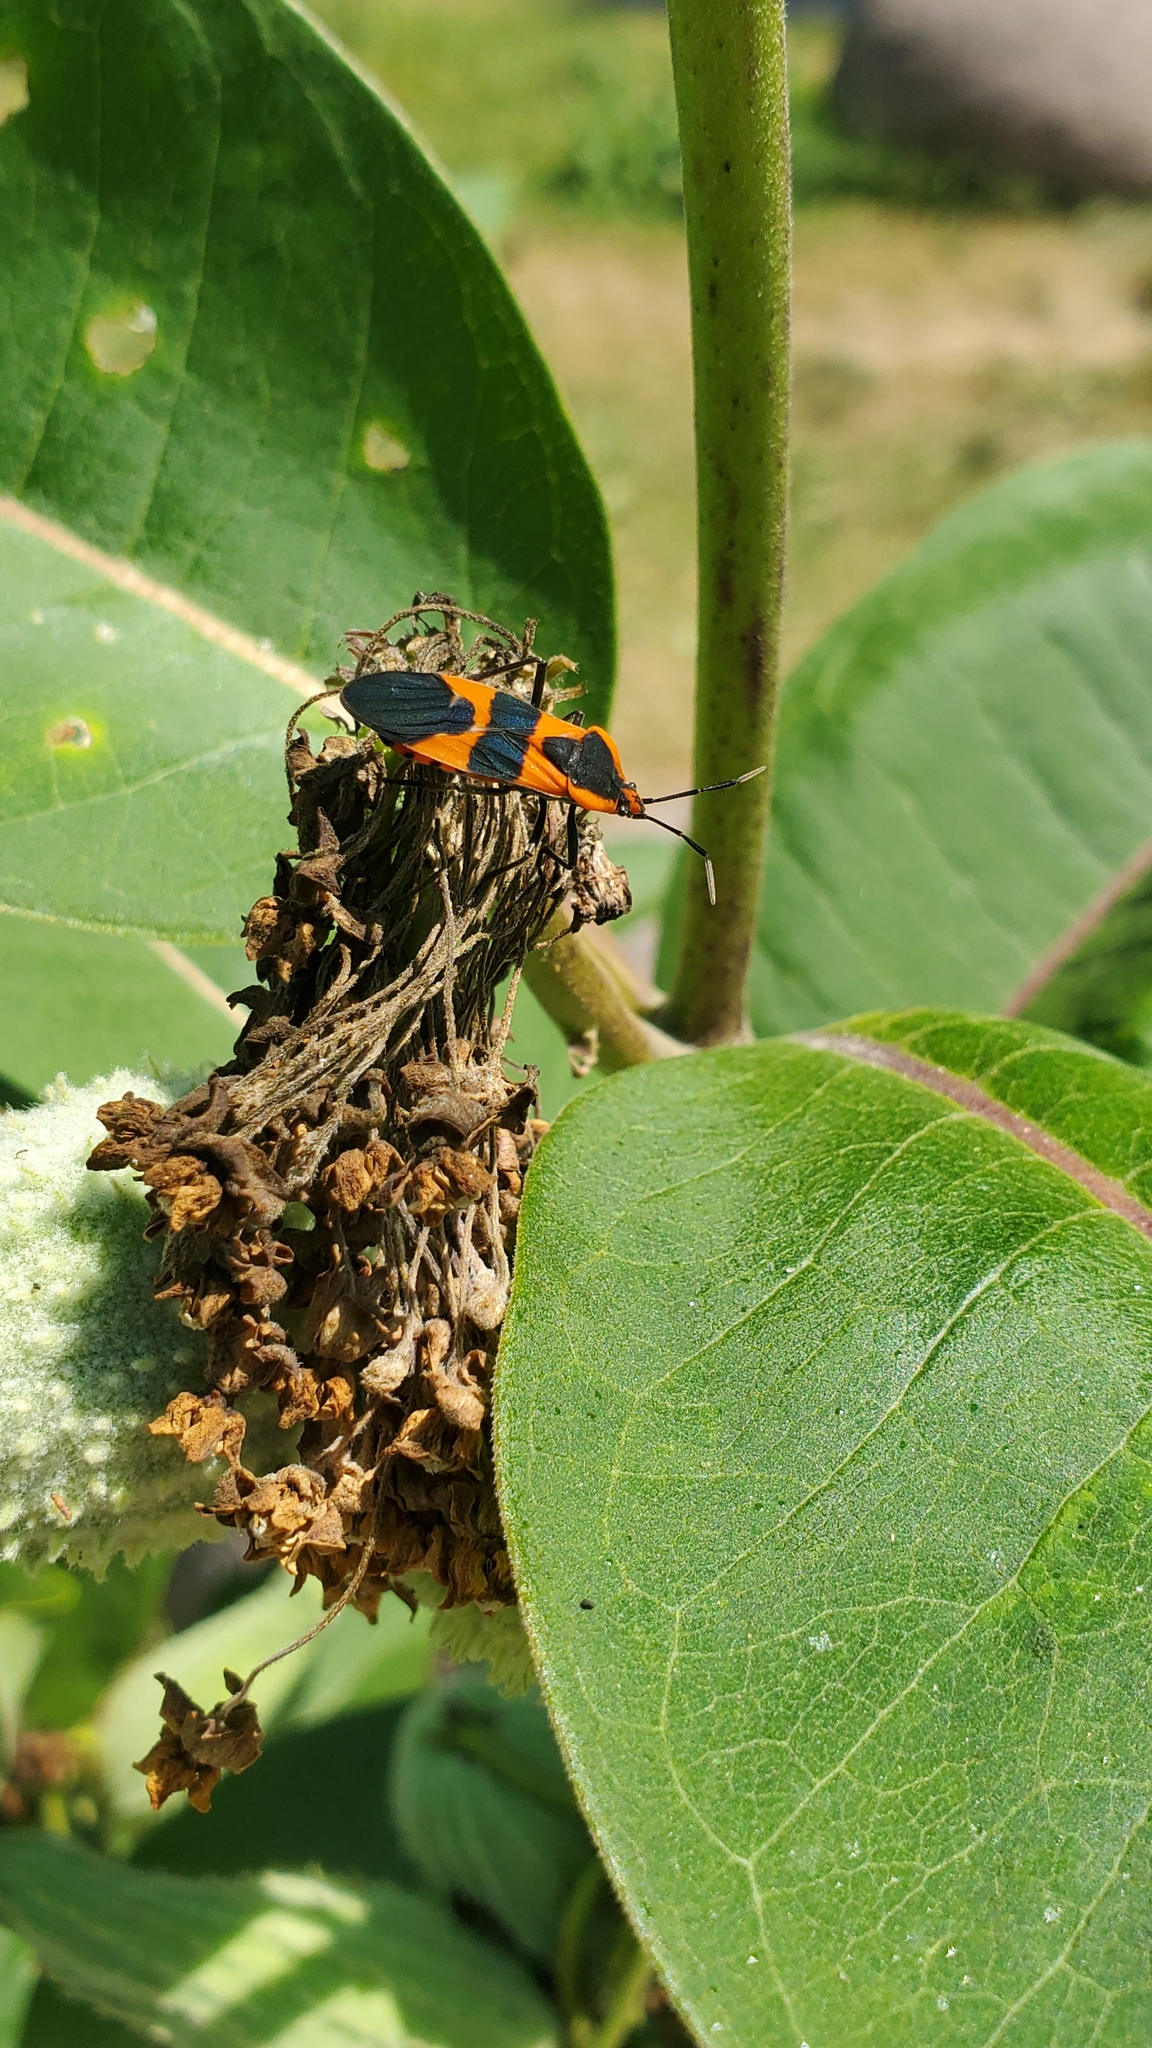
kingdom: Animalia
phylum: Arthropoda
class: Insecta
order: Hemiptera
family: Lygaeidae
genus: Oncopeltus
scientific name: Oncopeltus fasciatus
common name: Large milkweed bug
